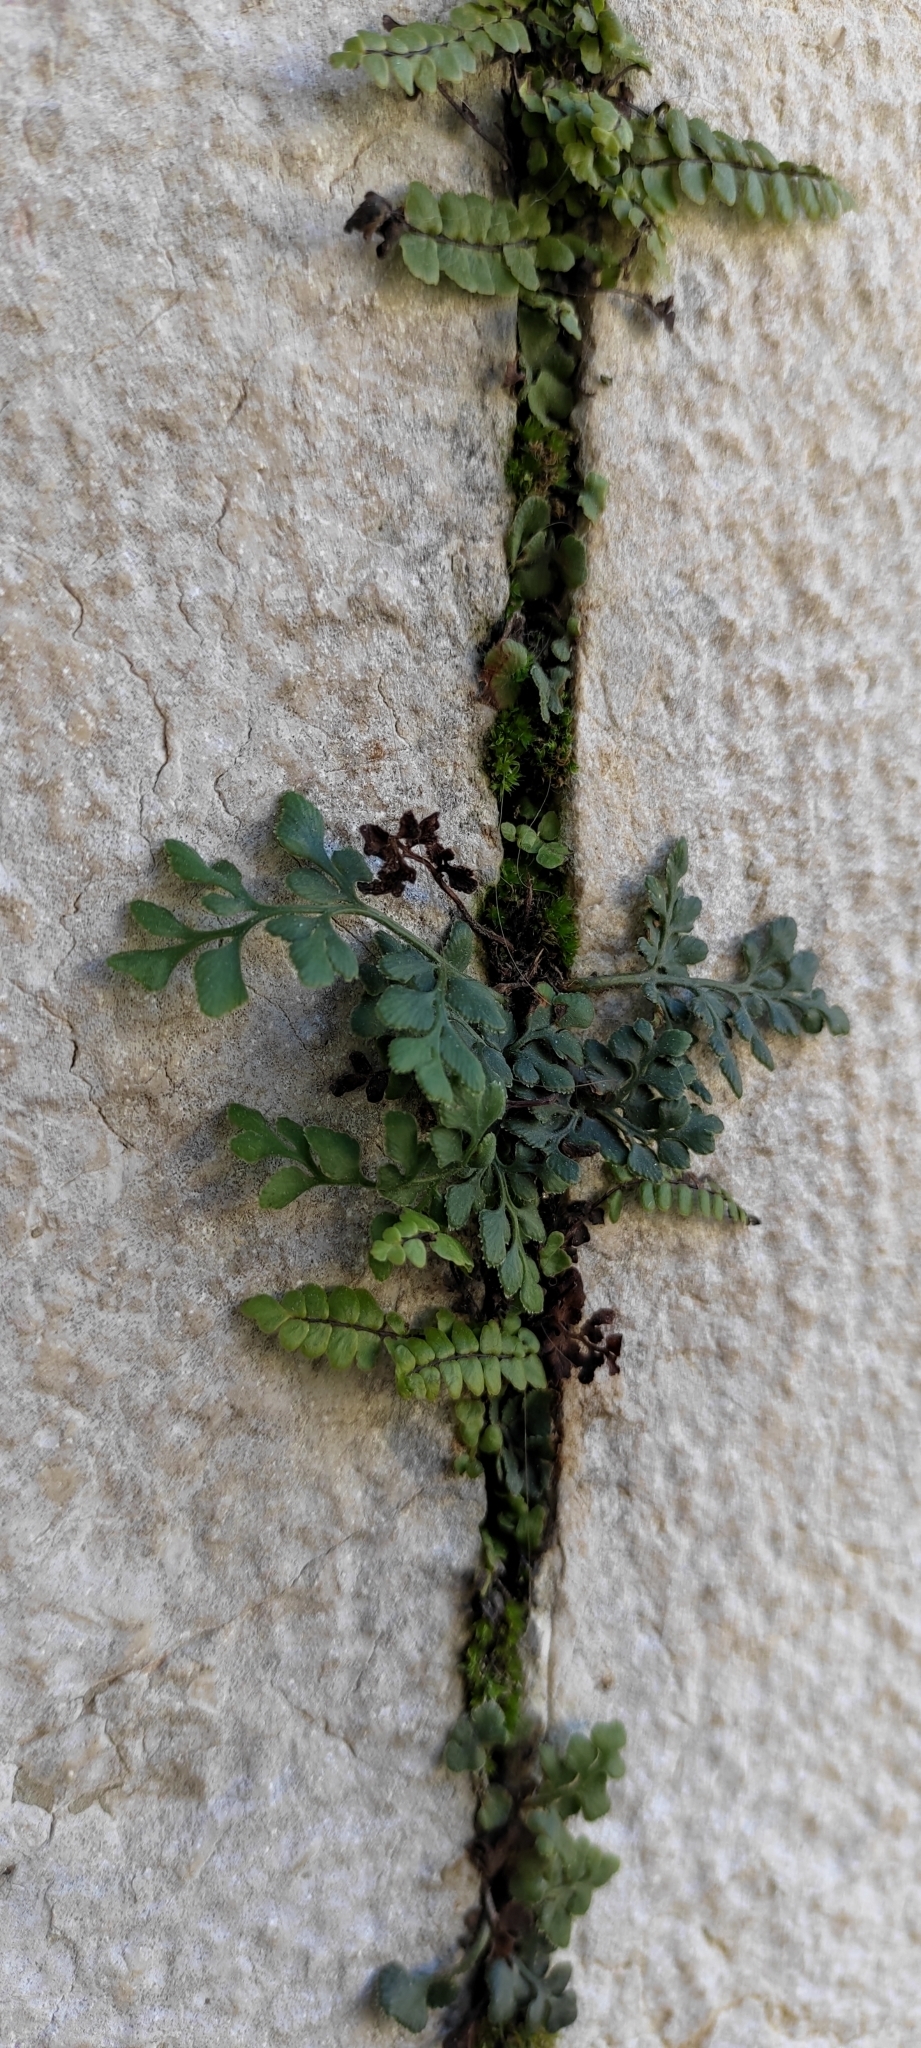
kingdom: Plantae
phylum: Tracheophyta
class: Polypodiopsida
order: Polypodiales
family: Aspleniaceae
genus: Asplenium
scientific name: Asplenium ruta-muraria
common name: Wall-rue
